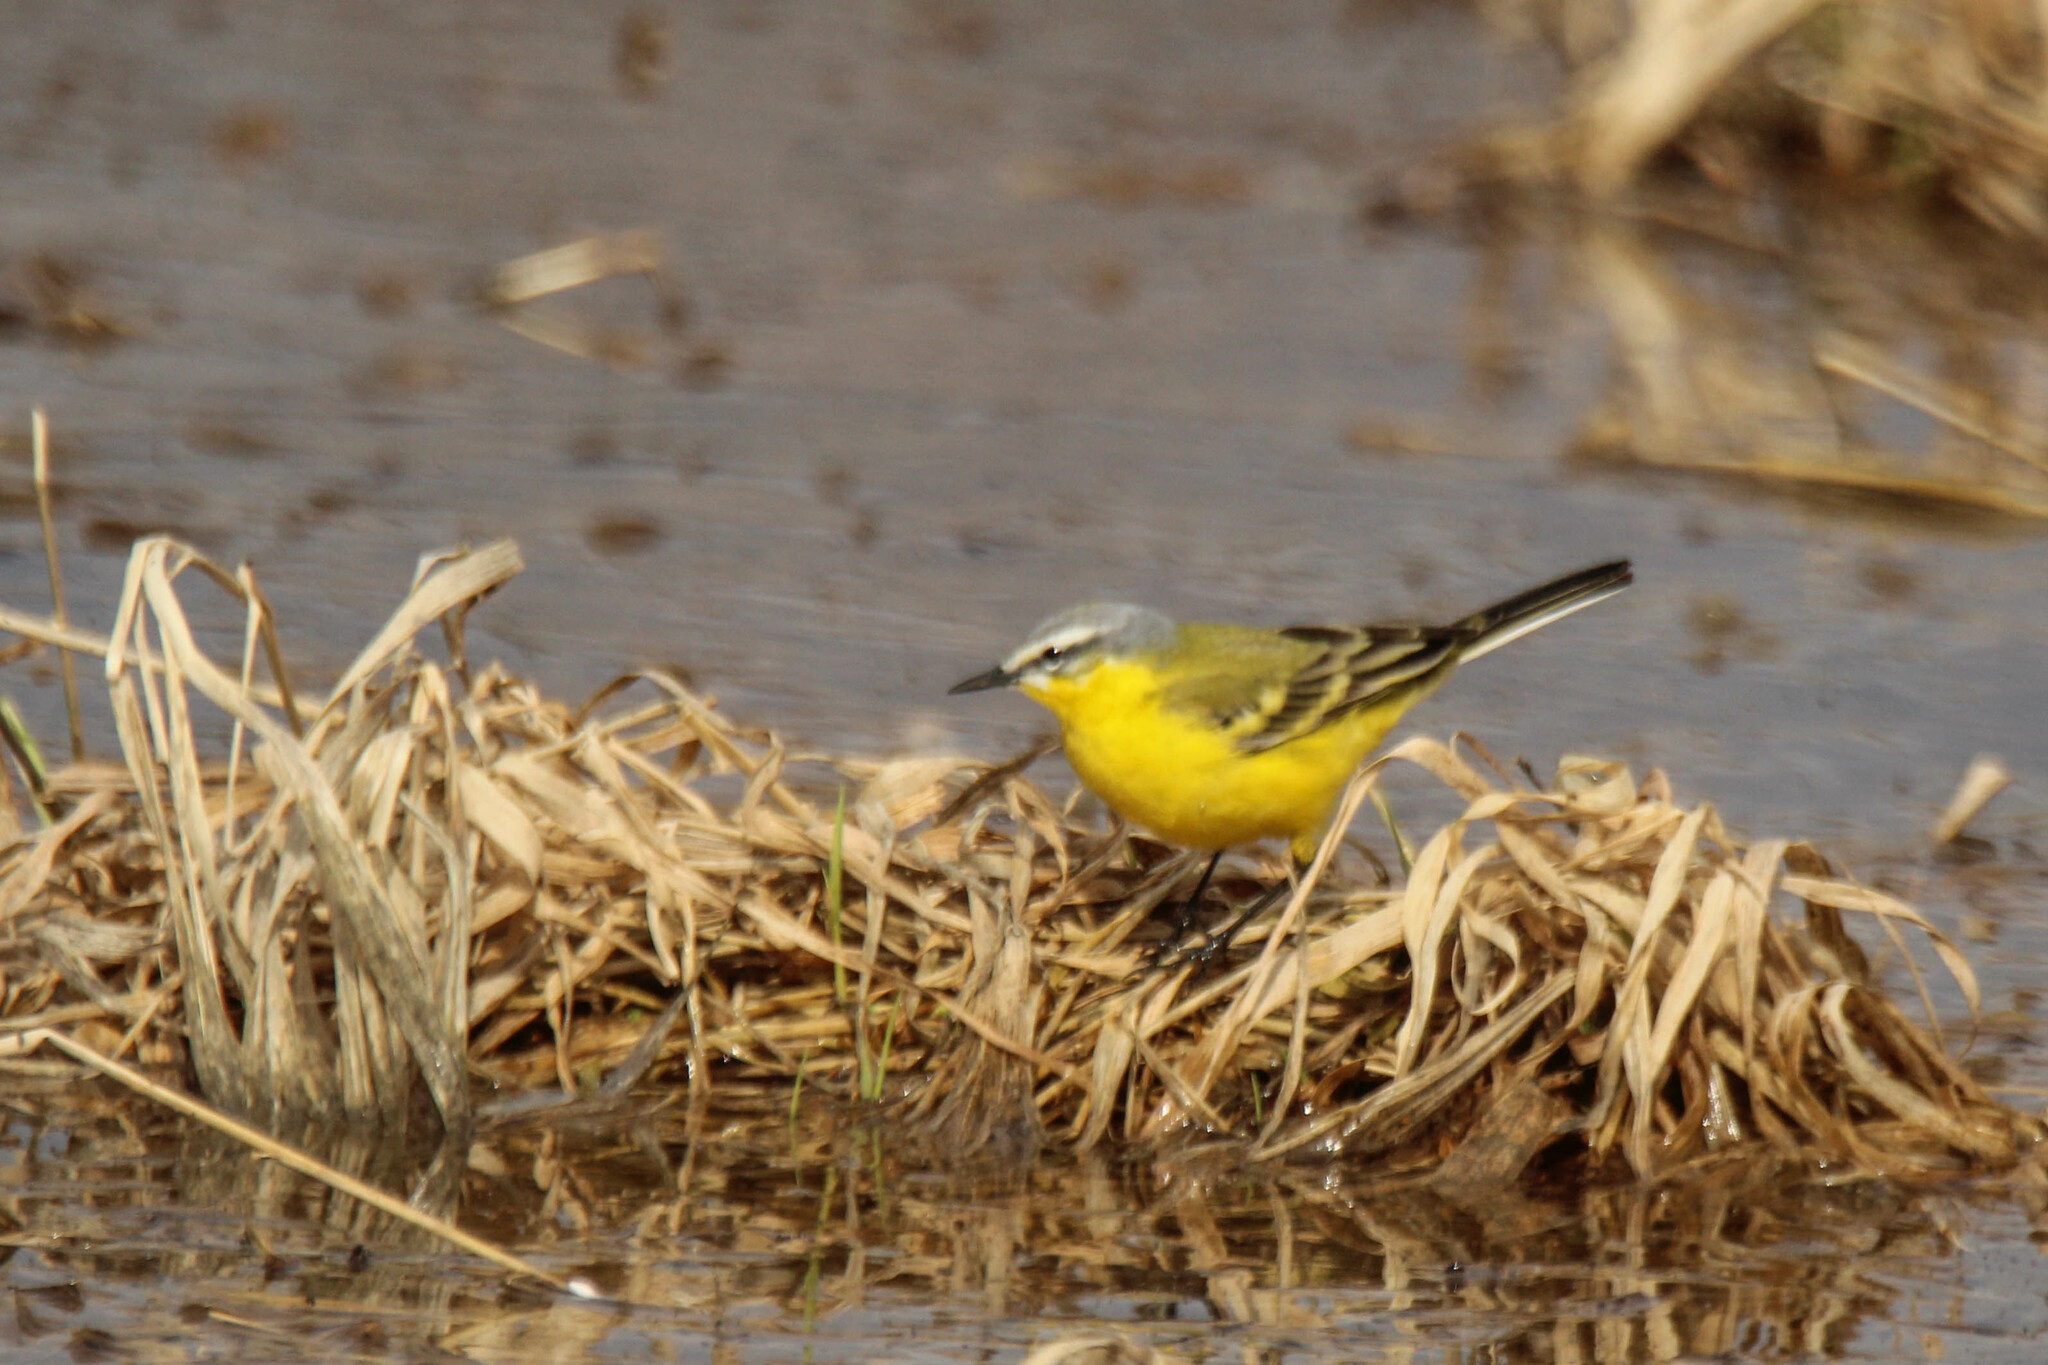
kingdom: Animalia
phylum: Chordata
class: Aves
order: Passeriformes
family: Motacillidae
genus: Motacilla
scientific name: Motacilla flava
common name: Western yellow wagtail
